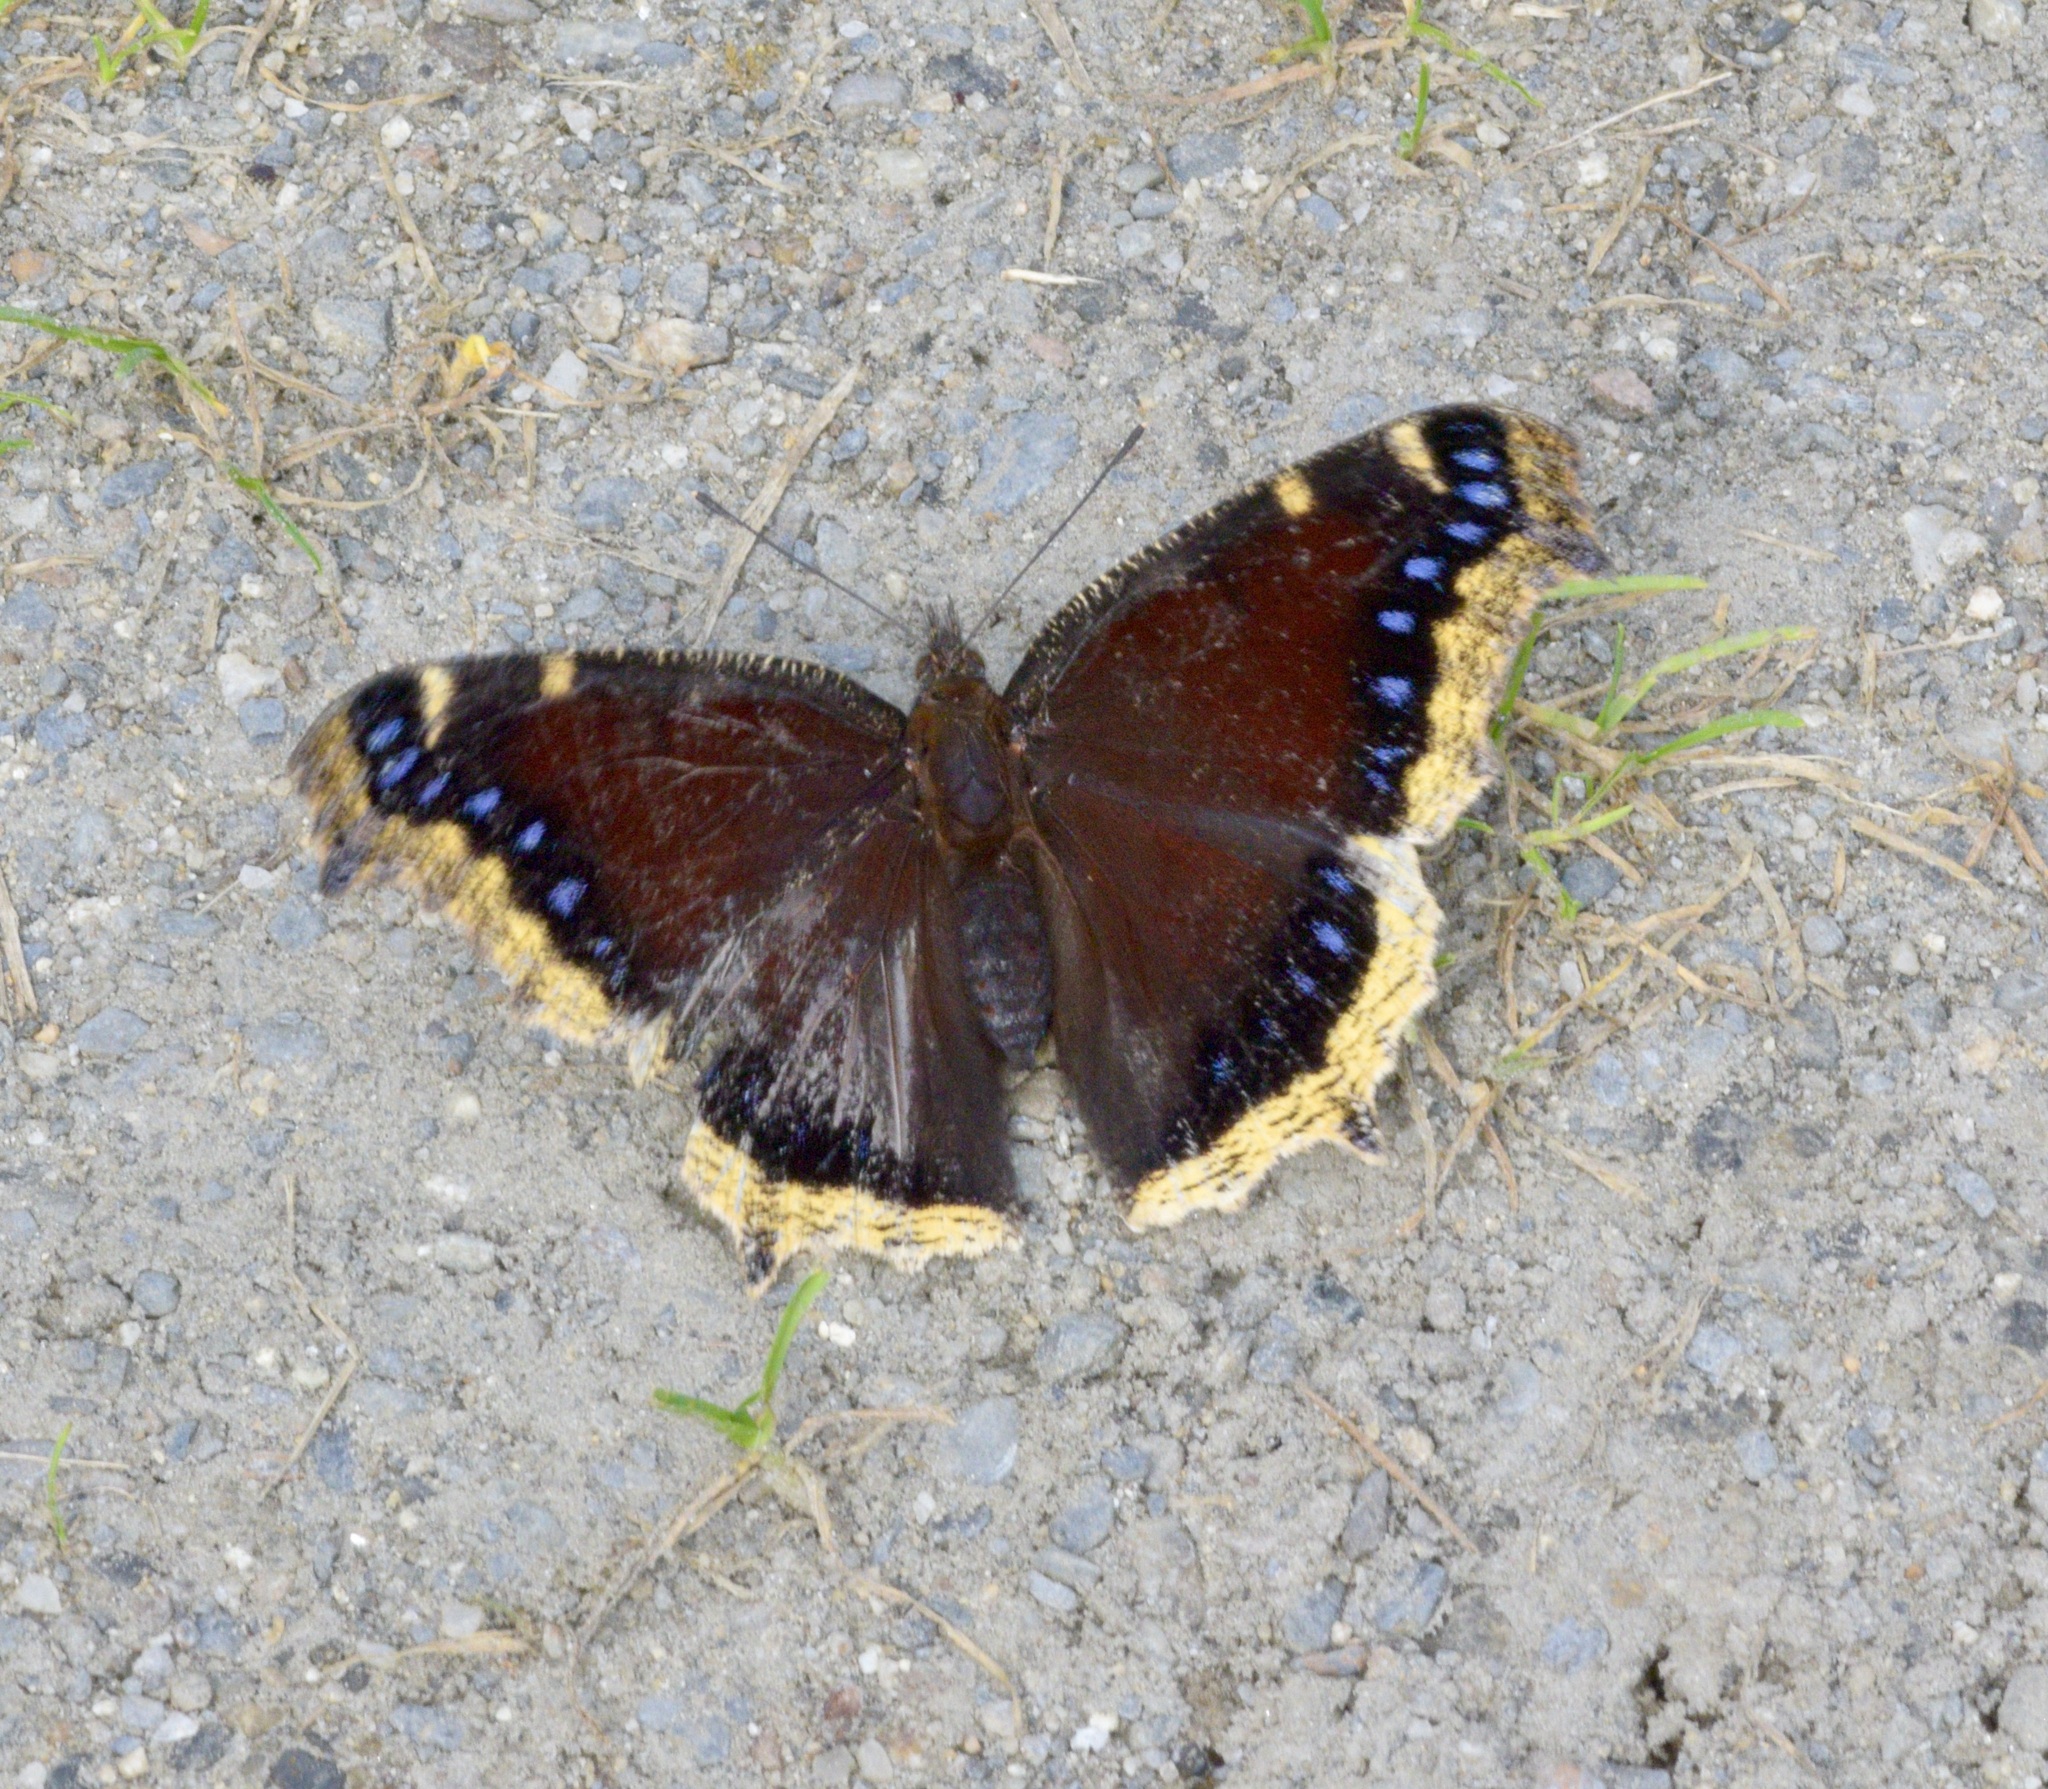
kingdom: Animalia
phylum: Arthropoda
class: Insecta
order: Lepidoptera
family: Nymphalidae
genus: Nymphalis
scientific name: Nymphalis antiopa
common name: Camberwell beauty
